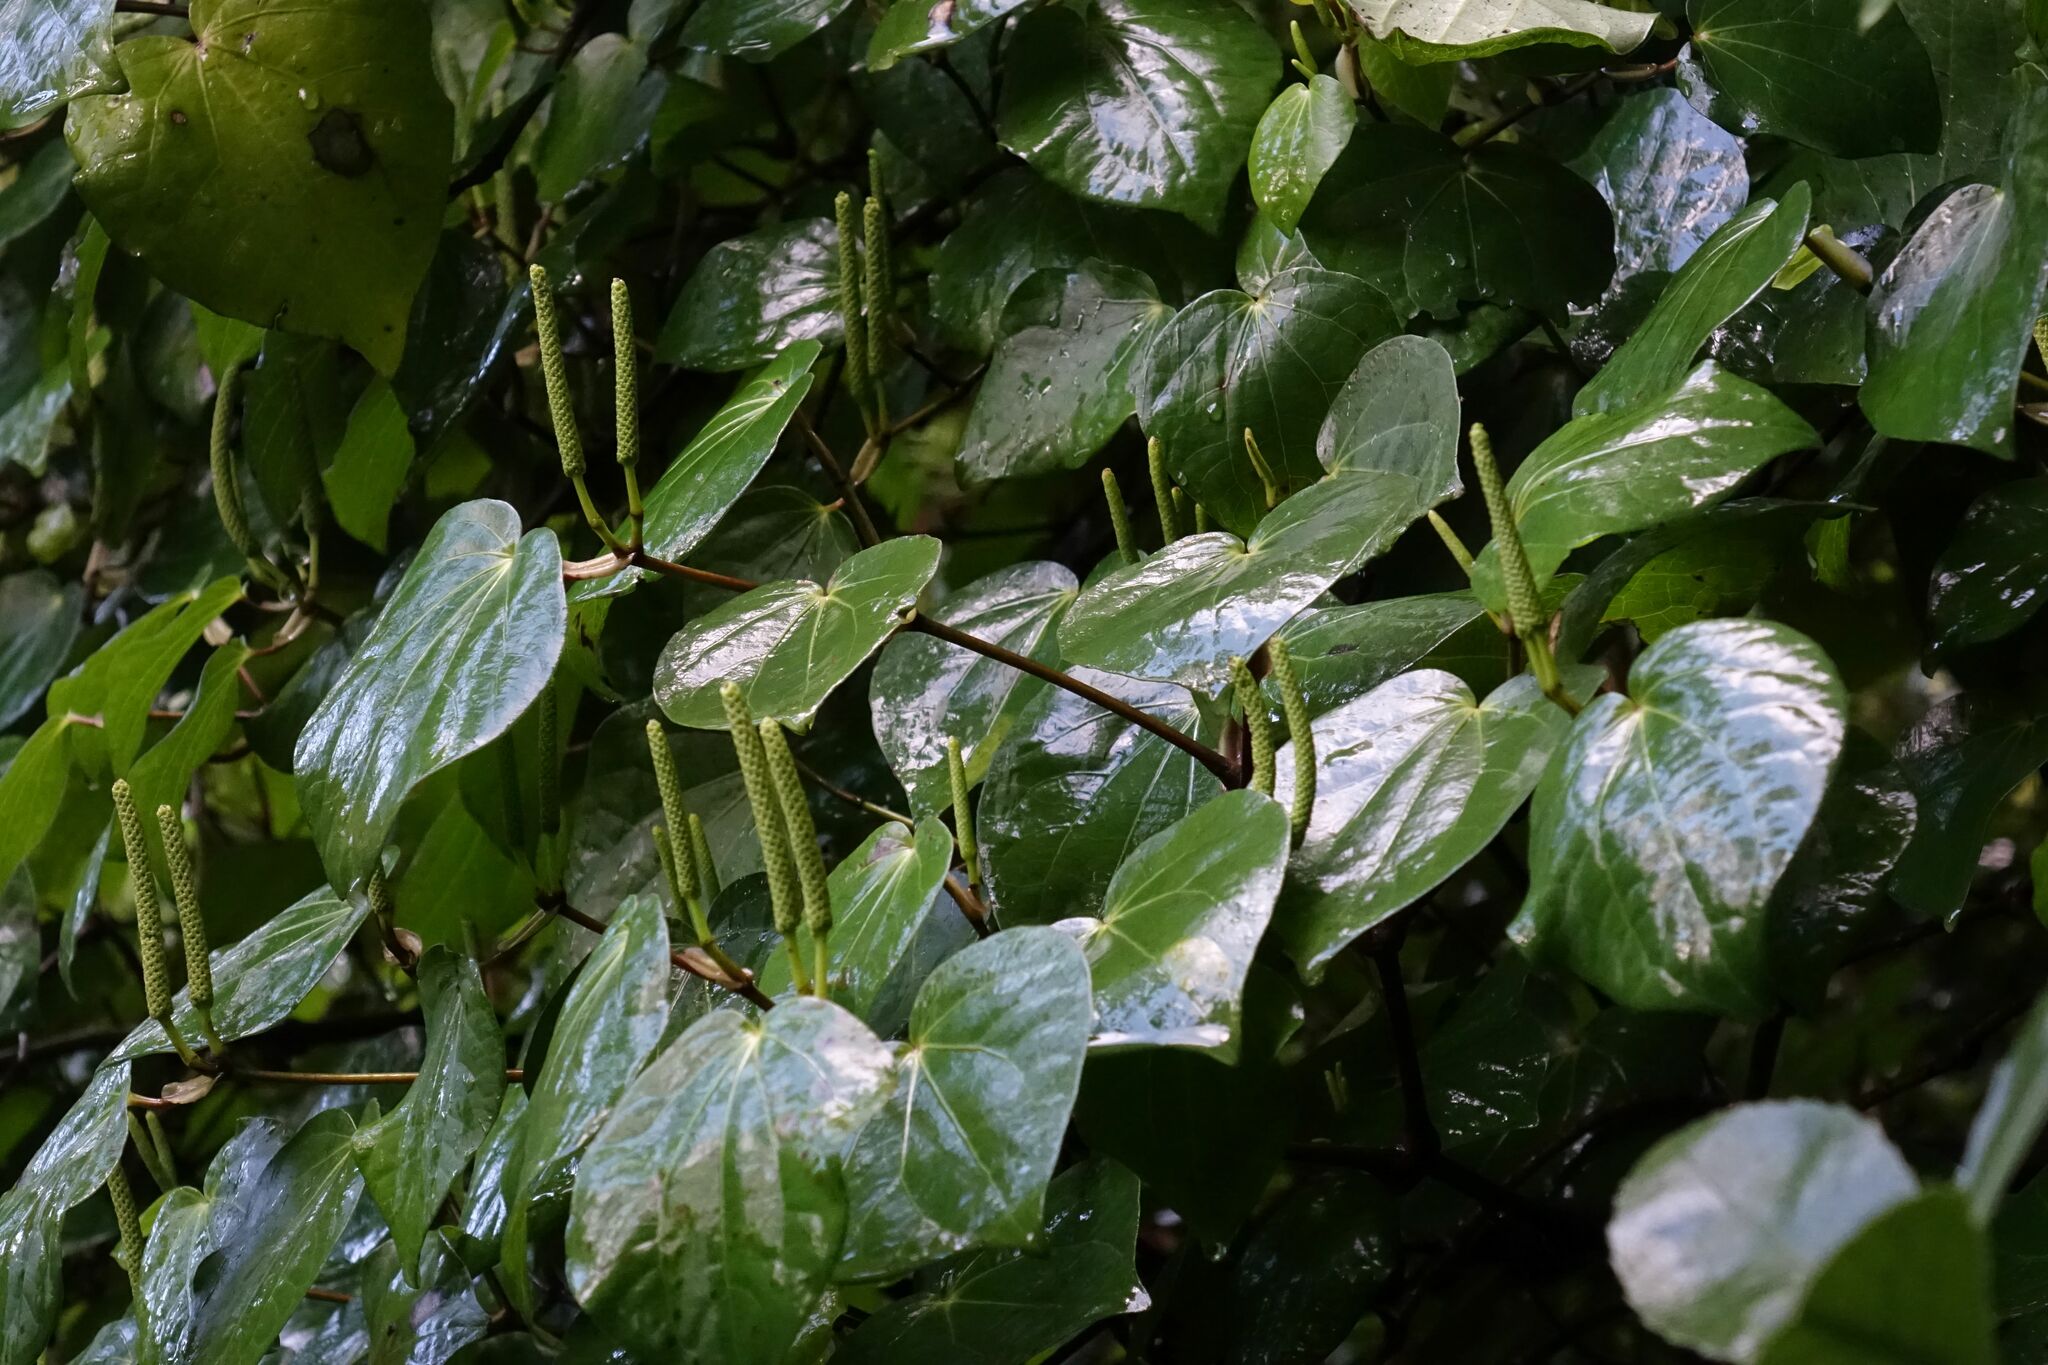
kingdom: Plantae
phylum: Tracheophyta
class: Magnoliopsida
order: Piperales
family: Piperaceae
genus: Macropiper
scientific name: Macropiper excelsum
